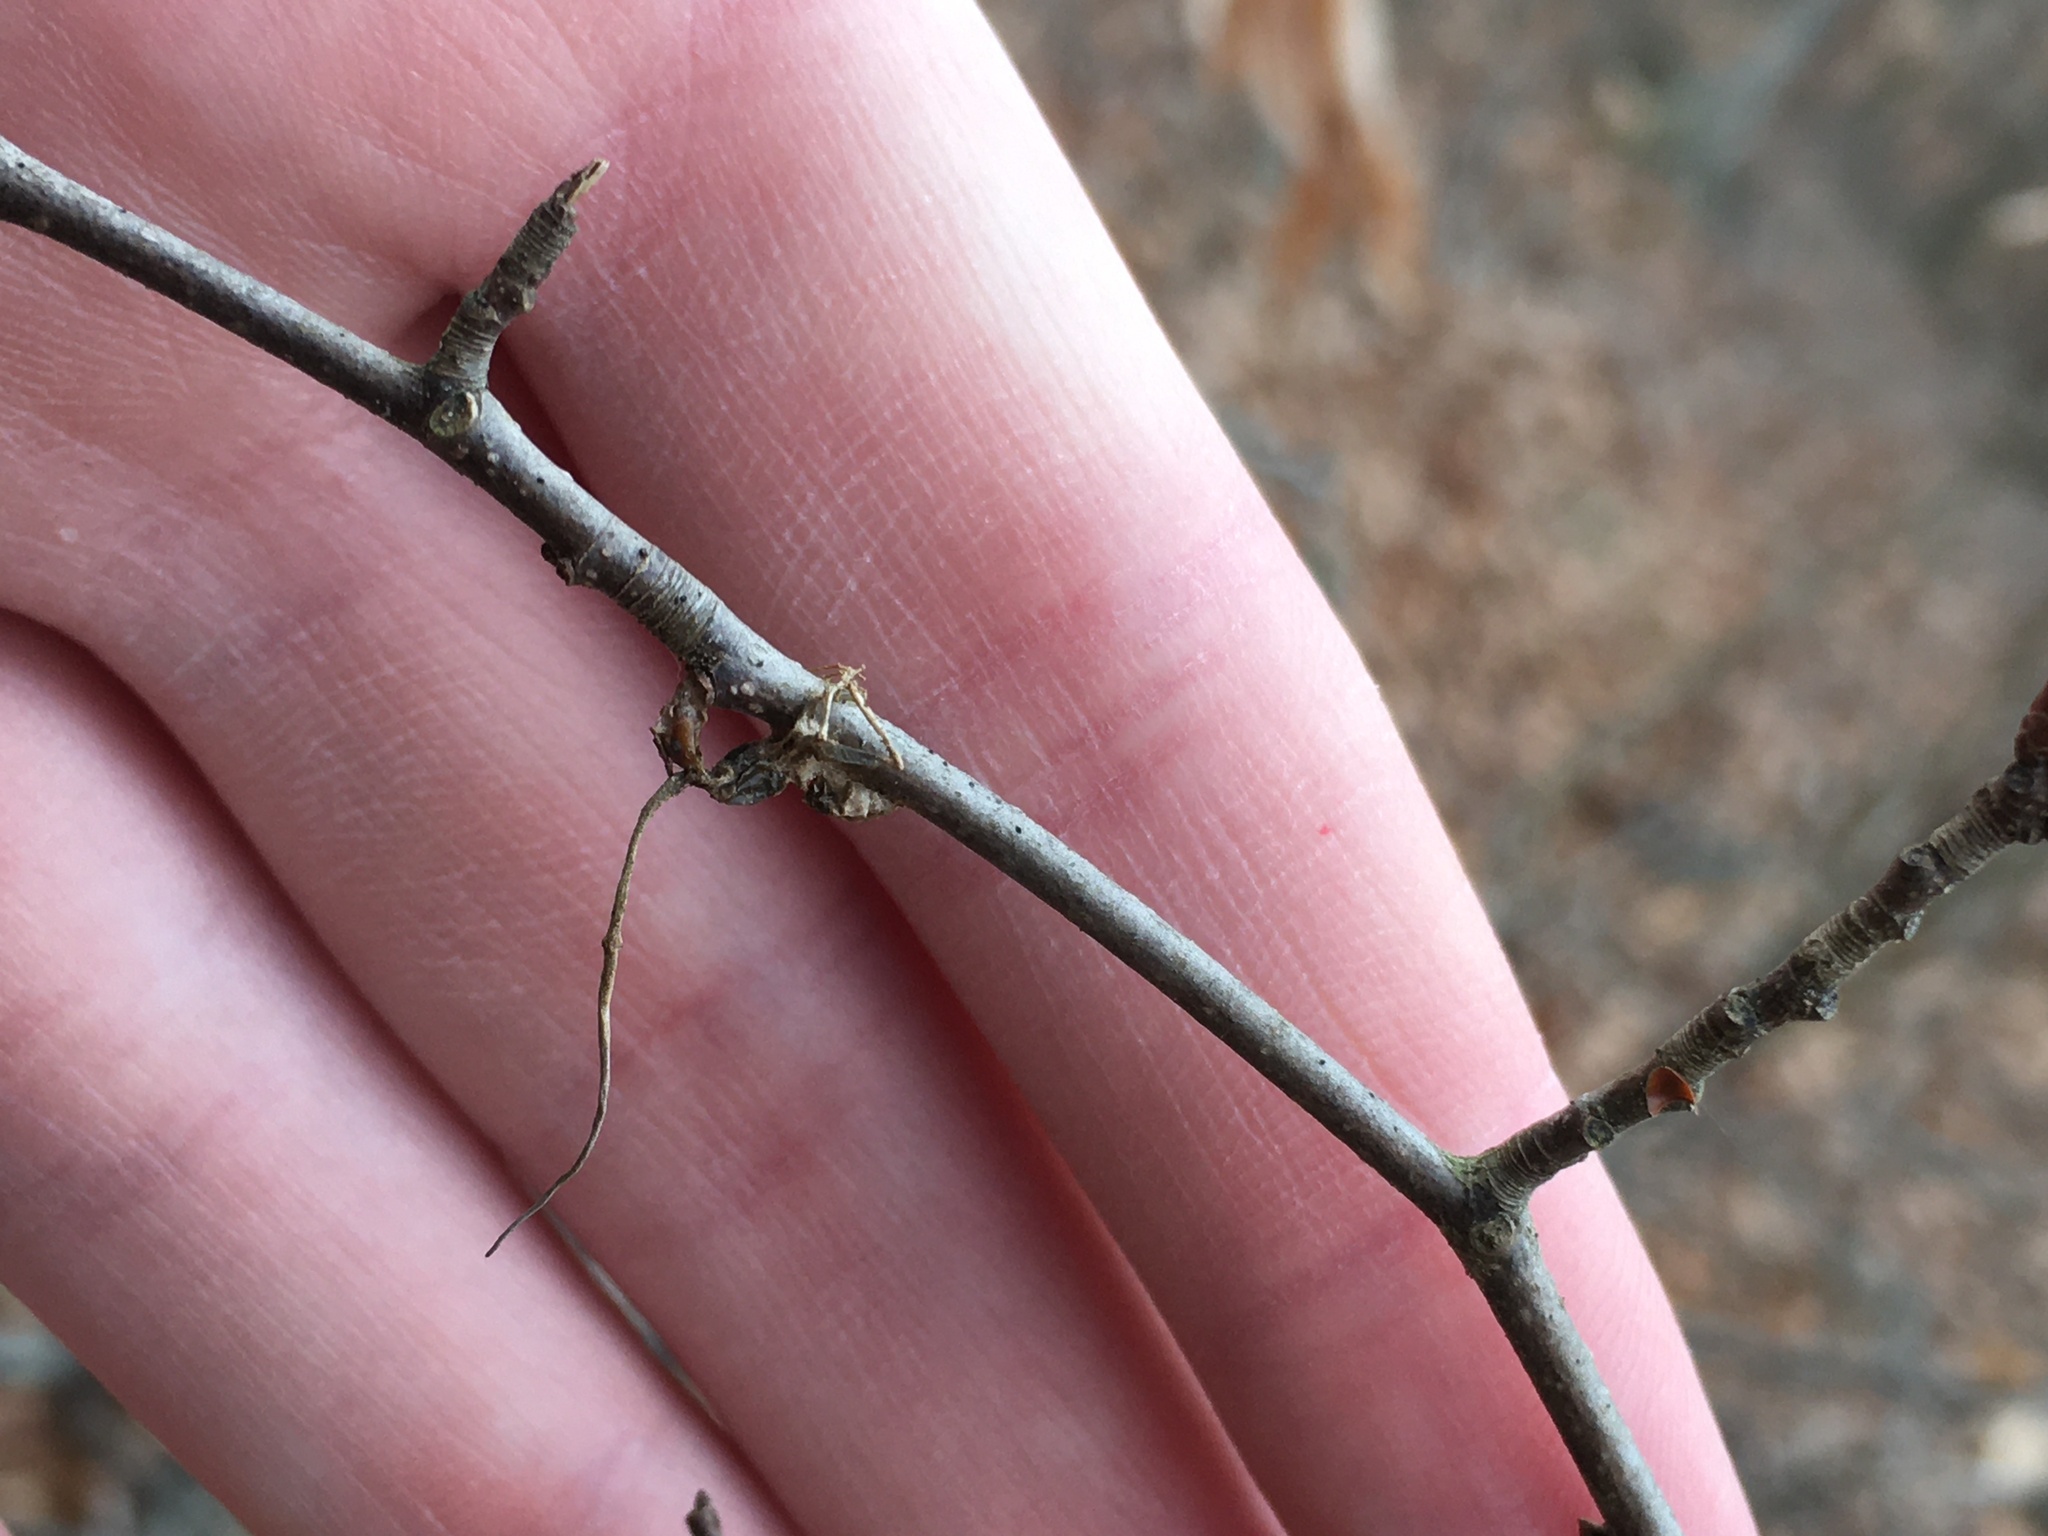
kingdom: Fungi
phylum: Ascomycota
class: Sordariomycetes
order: Hypocreales
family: Ophiocordycipitaceae
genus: Ophiocordyceps
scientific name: Ophiocordyceps kimflemingiae
